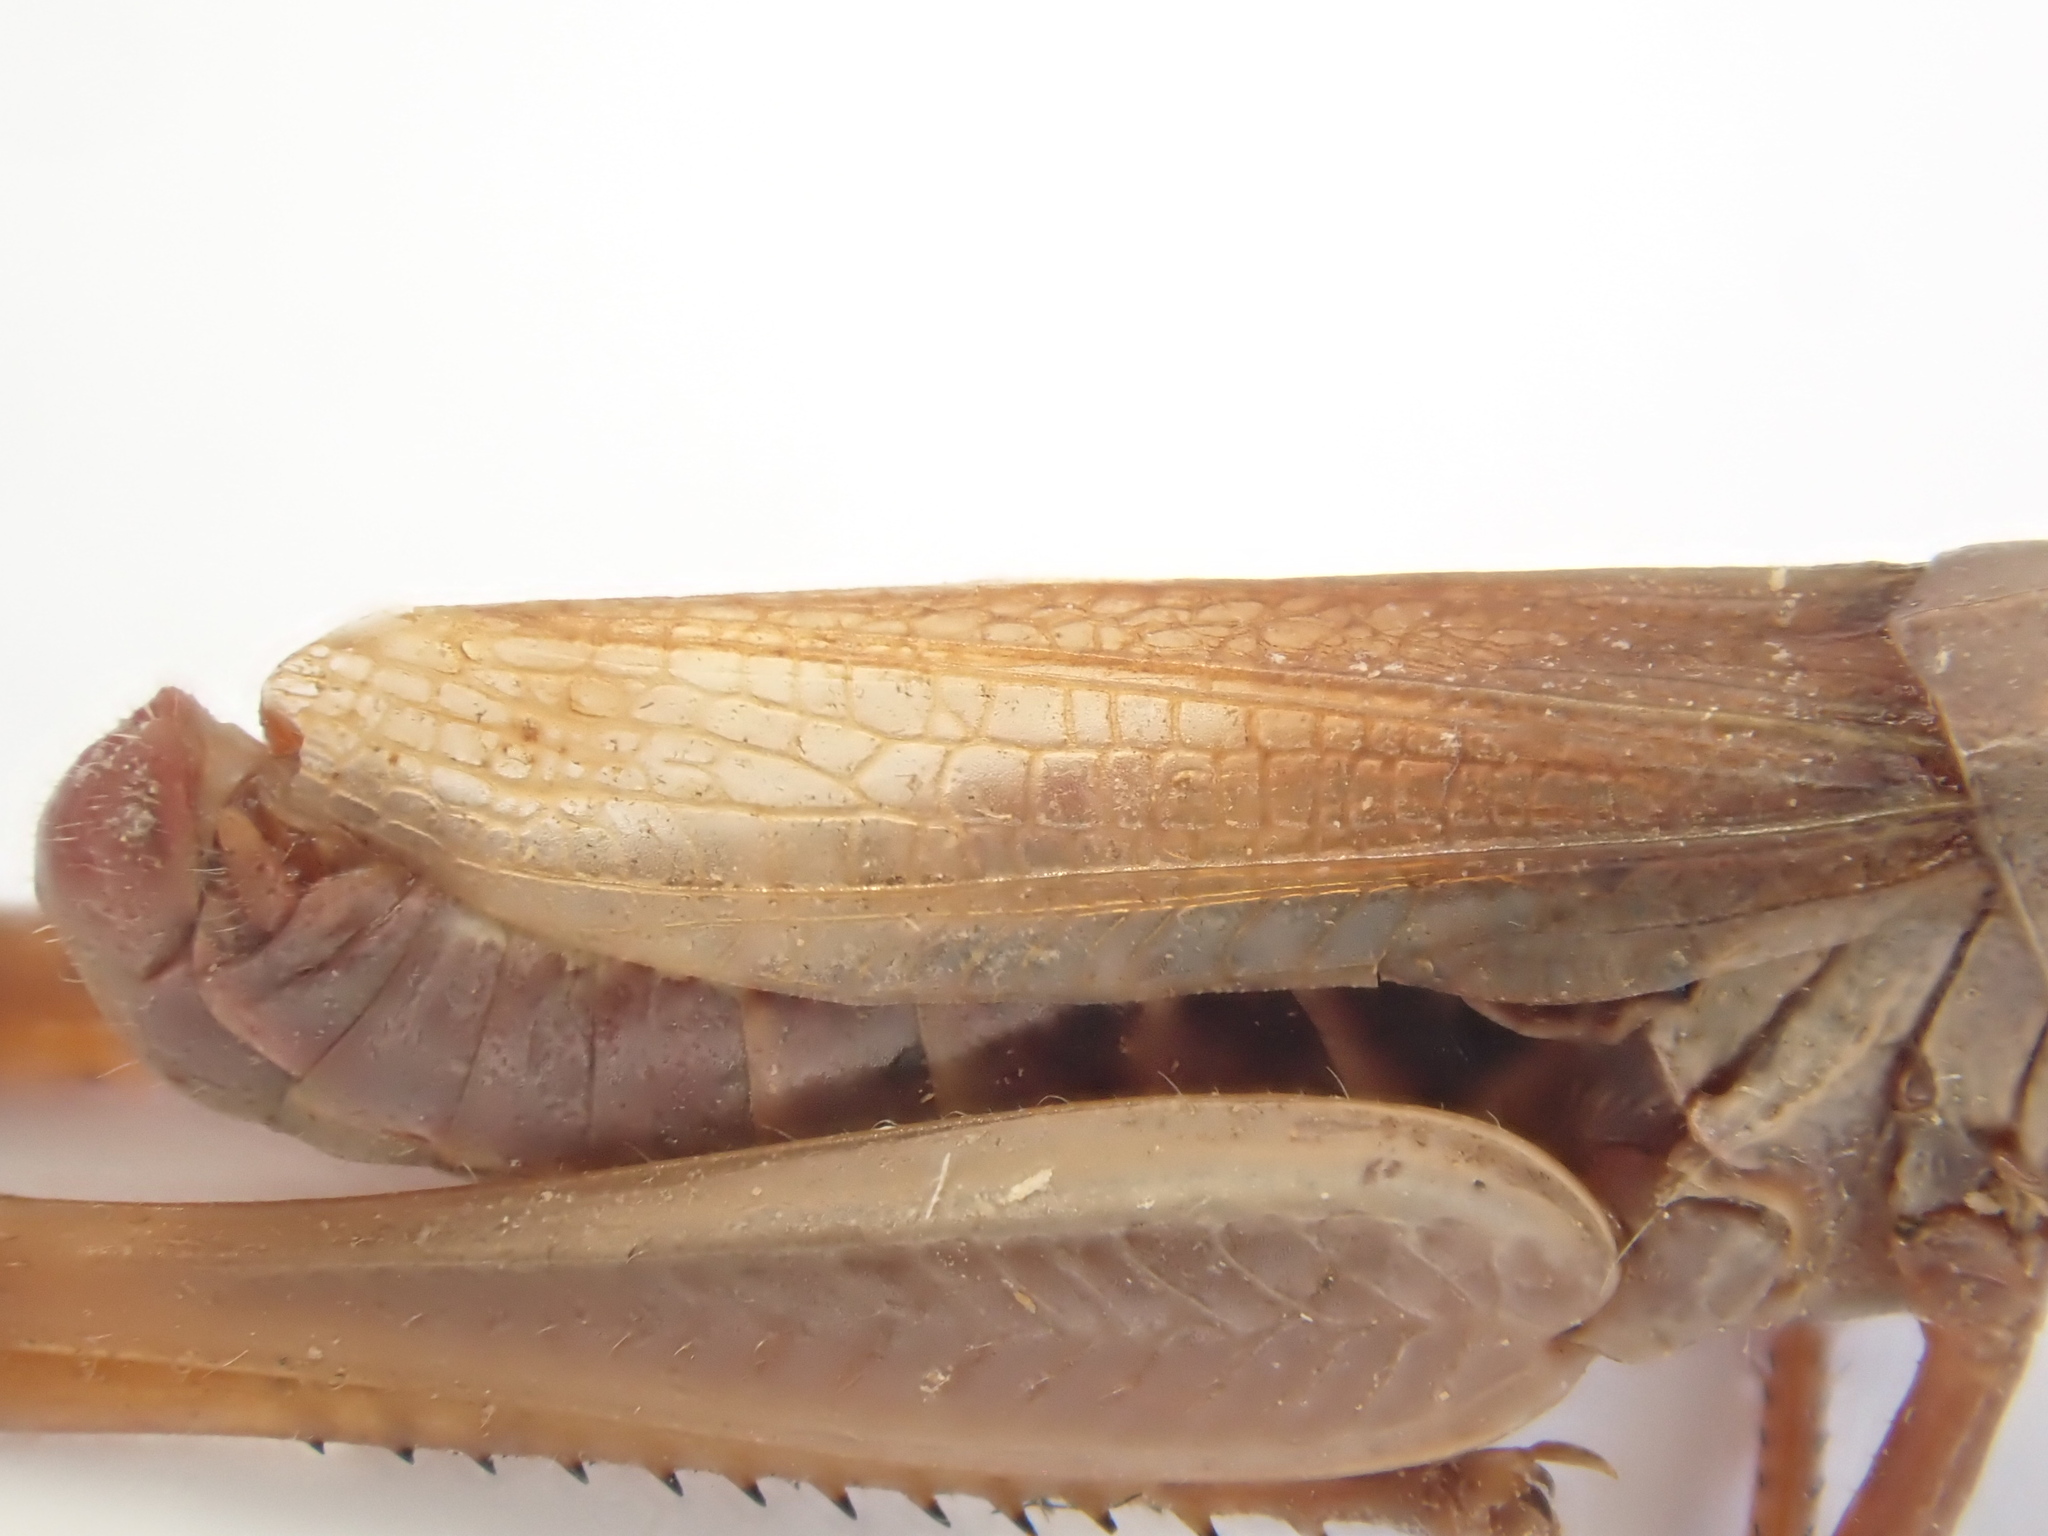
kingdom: Animalia
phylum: Arthropoda
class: Insecta
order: Orthoptera
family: Acrididae
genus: Pseudochorthippus
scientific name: Pseudochorthippus parallelus
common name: Meadow grasshopper
